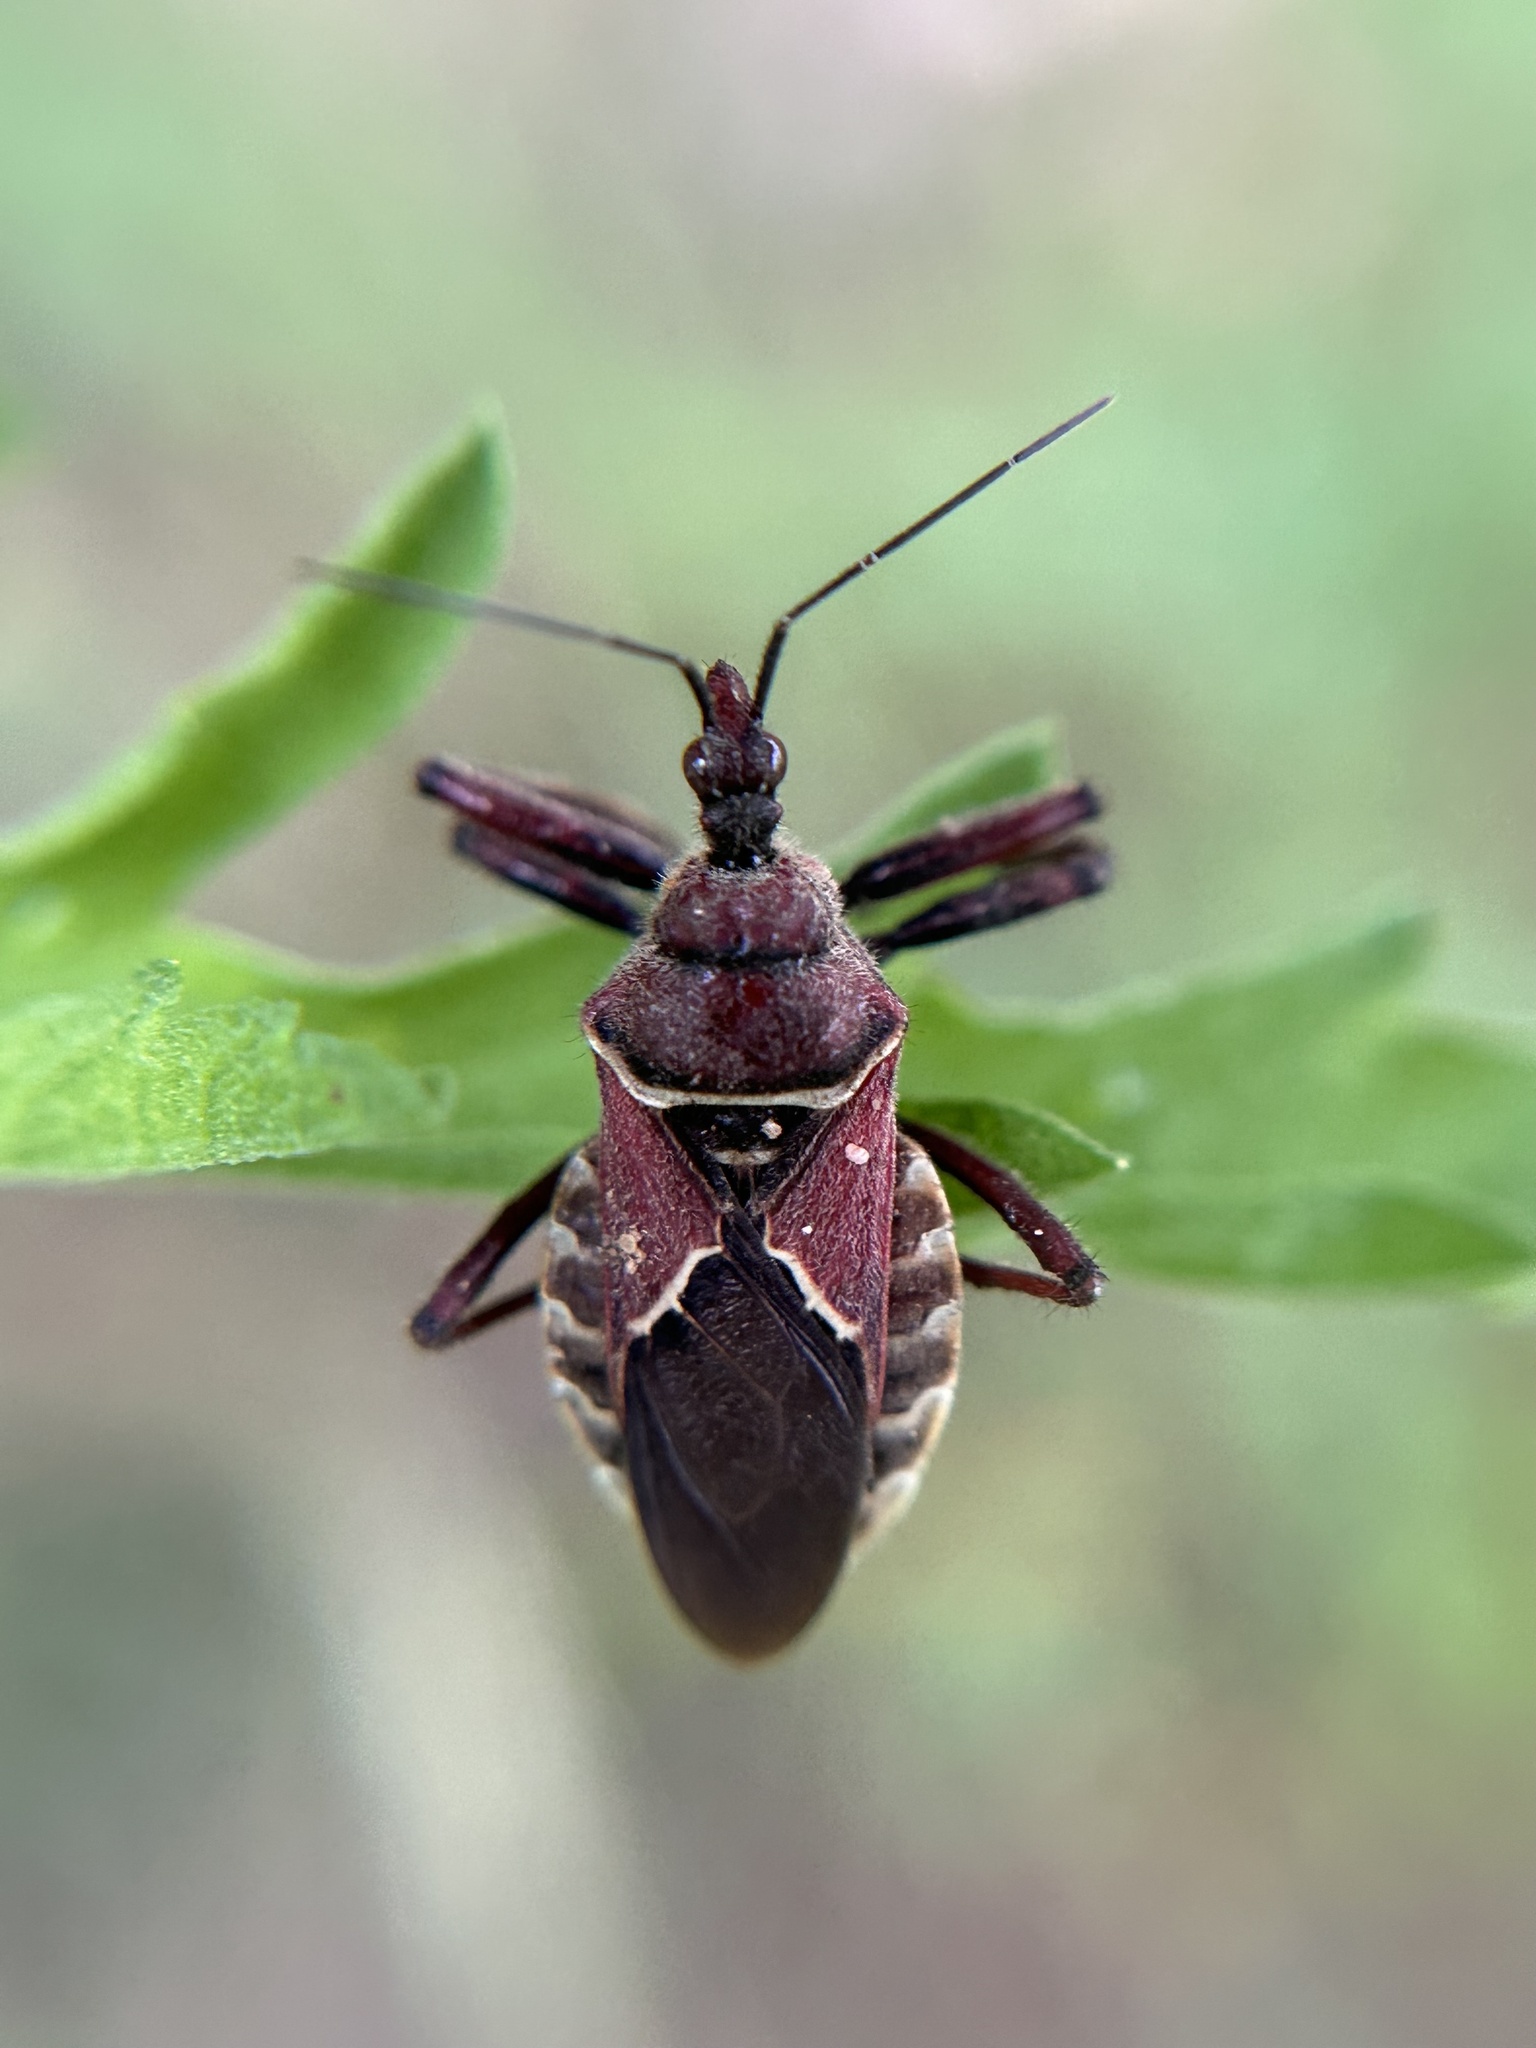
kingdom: Animalia
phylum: Arthropoda
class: Insecta
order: Hemiptera
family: Reduviidae
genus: Apiomerus
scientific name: Apiomerus spissipes
